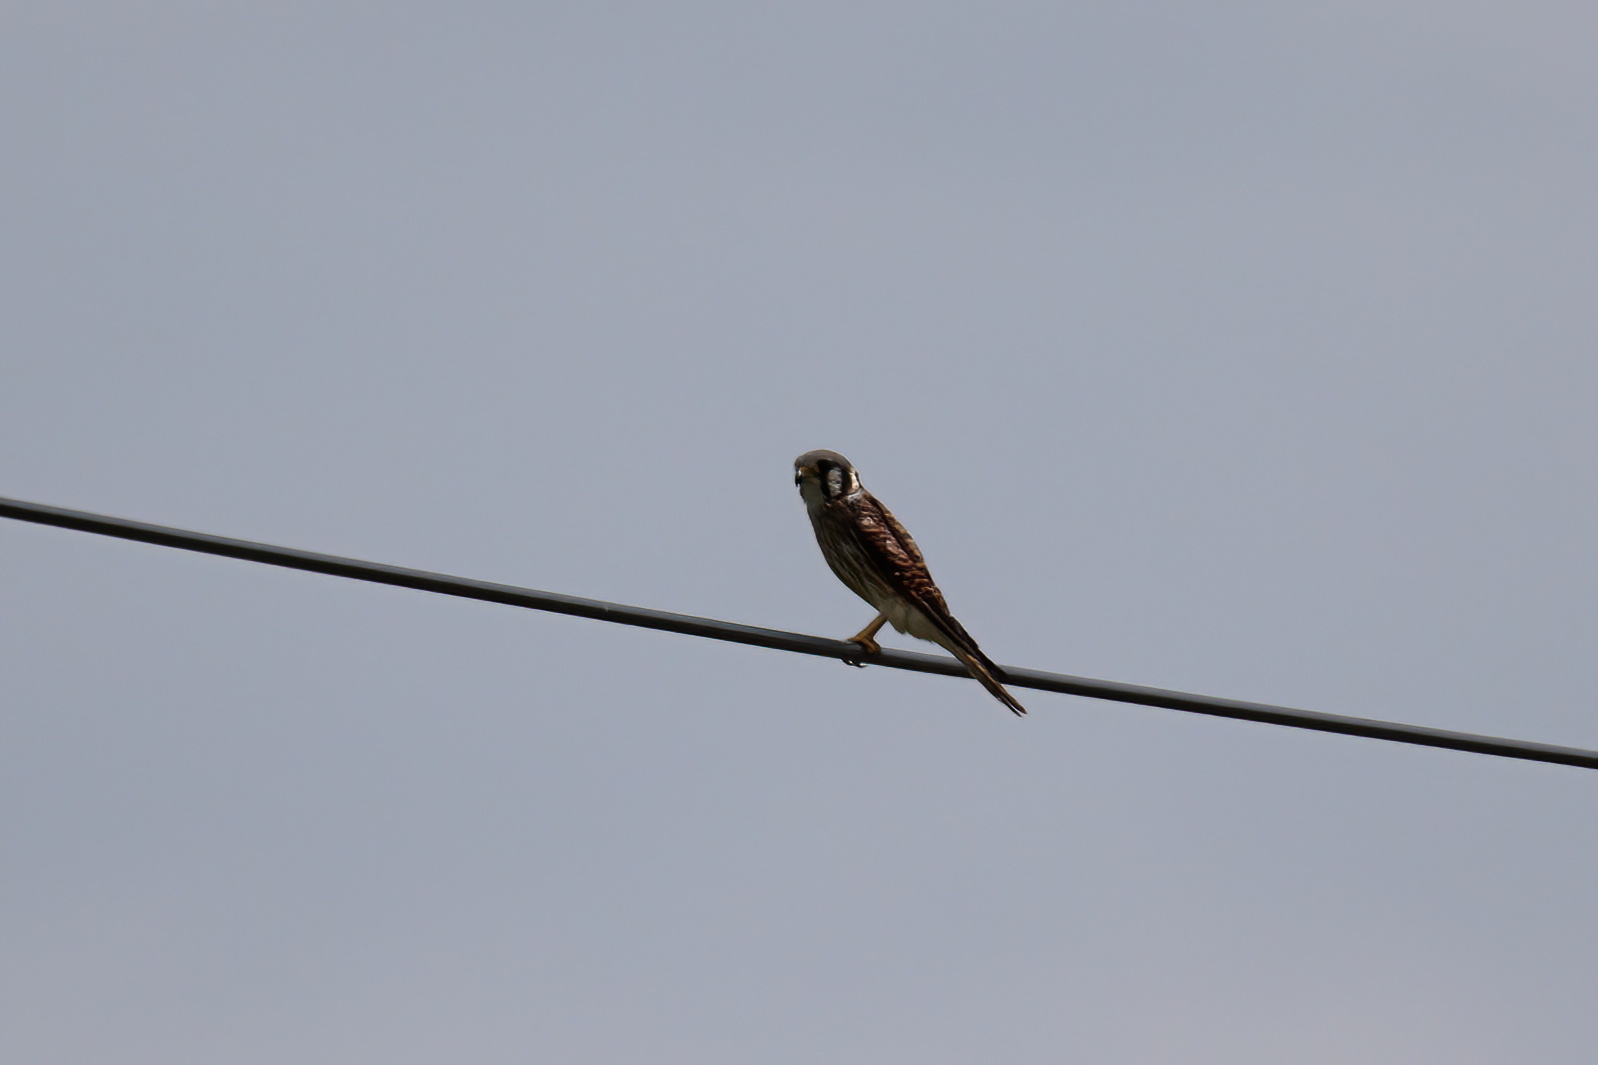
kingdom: Animalia
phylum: Chordata
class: Aves
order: Falconiformes
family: Falconidae
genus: Falco
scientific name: Falco sparverius
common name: American kestrel
